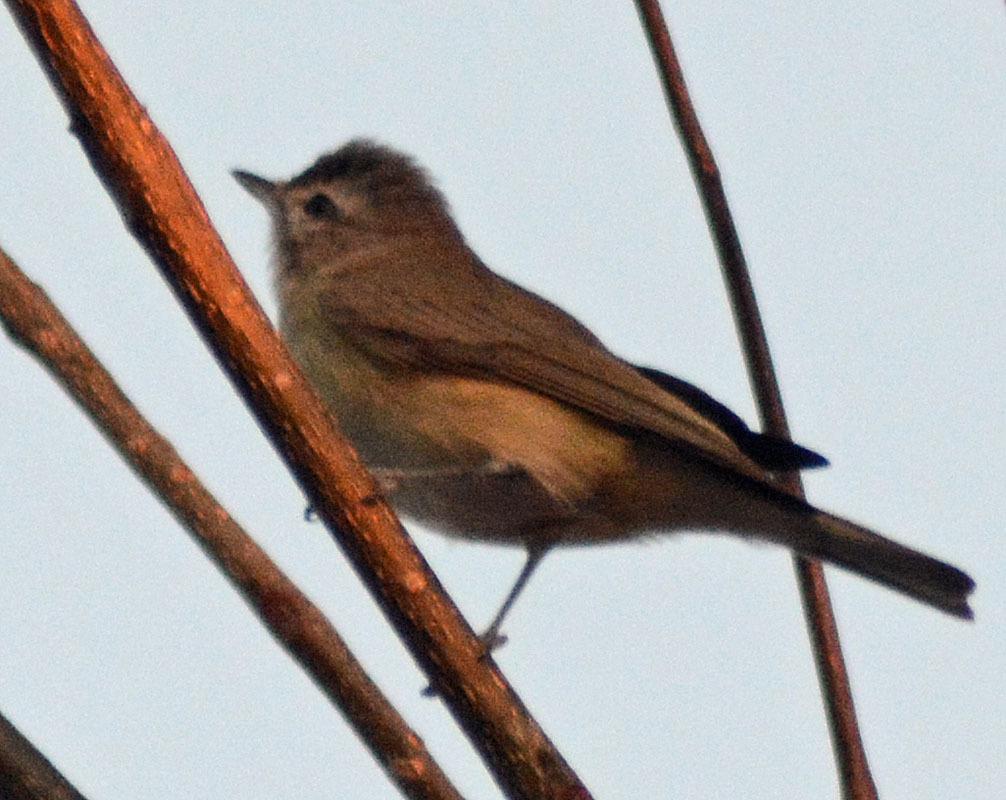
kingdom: Animalia
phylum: Chordata
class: Aves
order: Passeriformes
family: Vireonidae
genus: Vireo
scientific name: Vireo gilvus
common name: Warbling vireo
